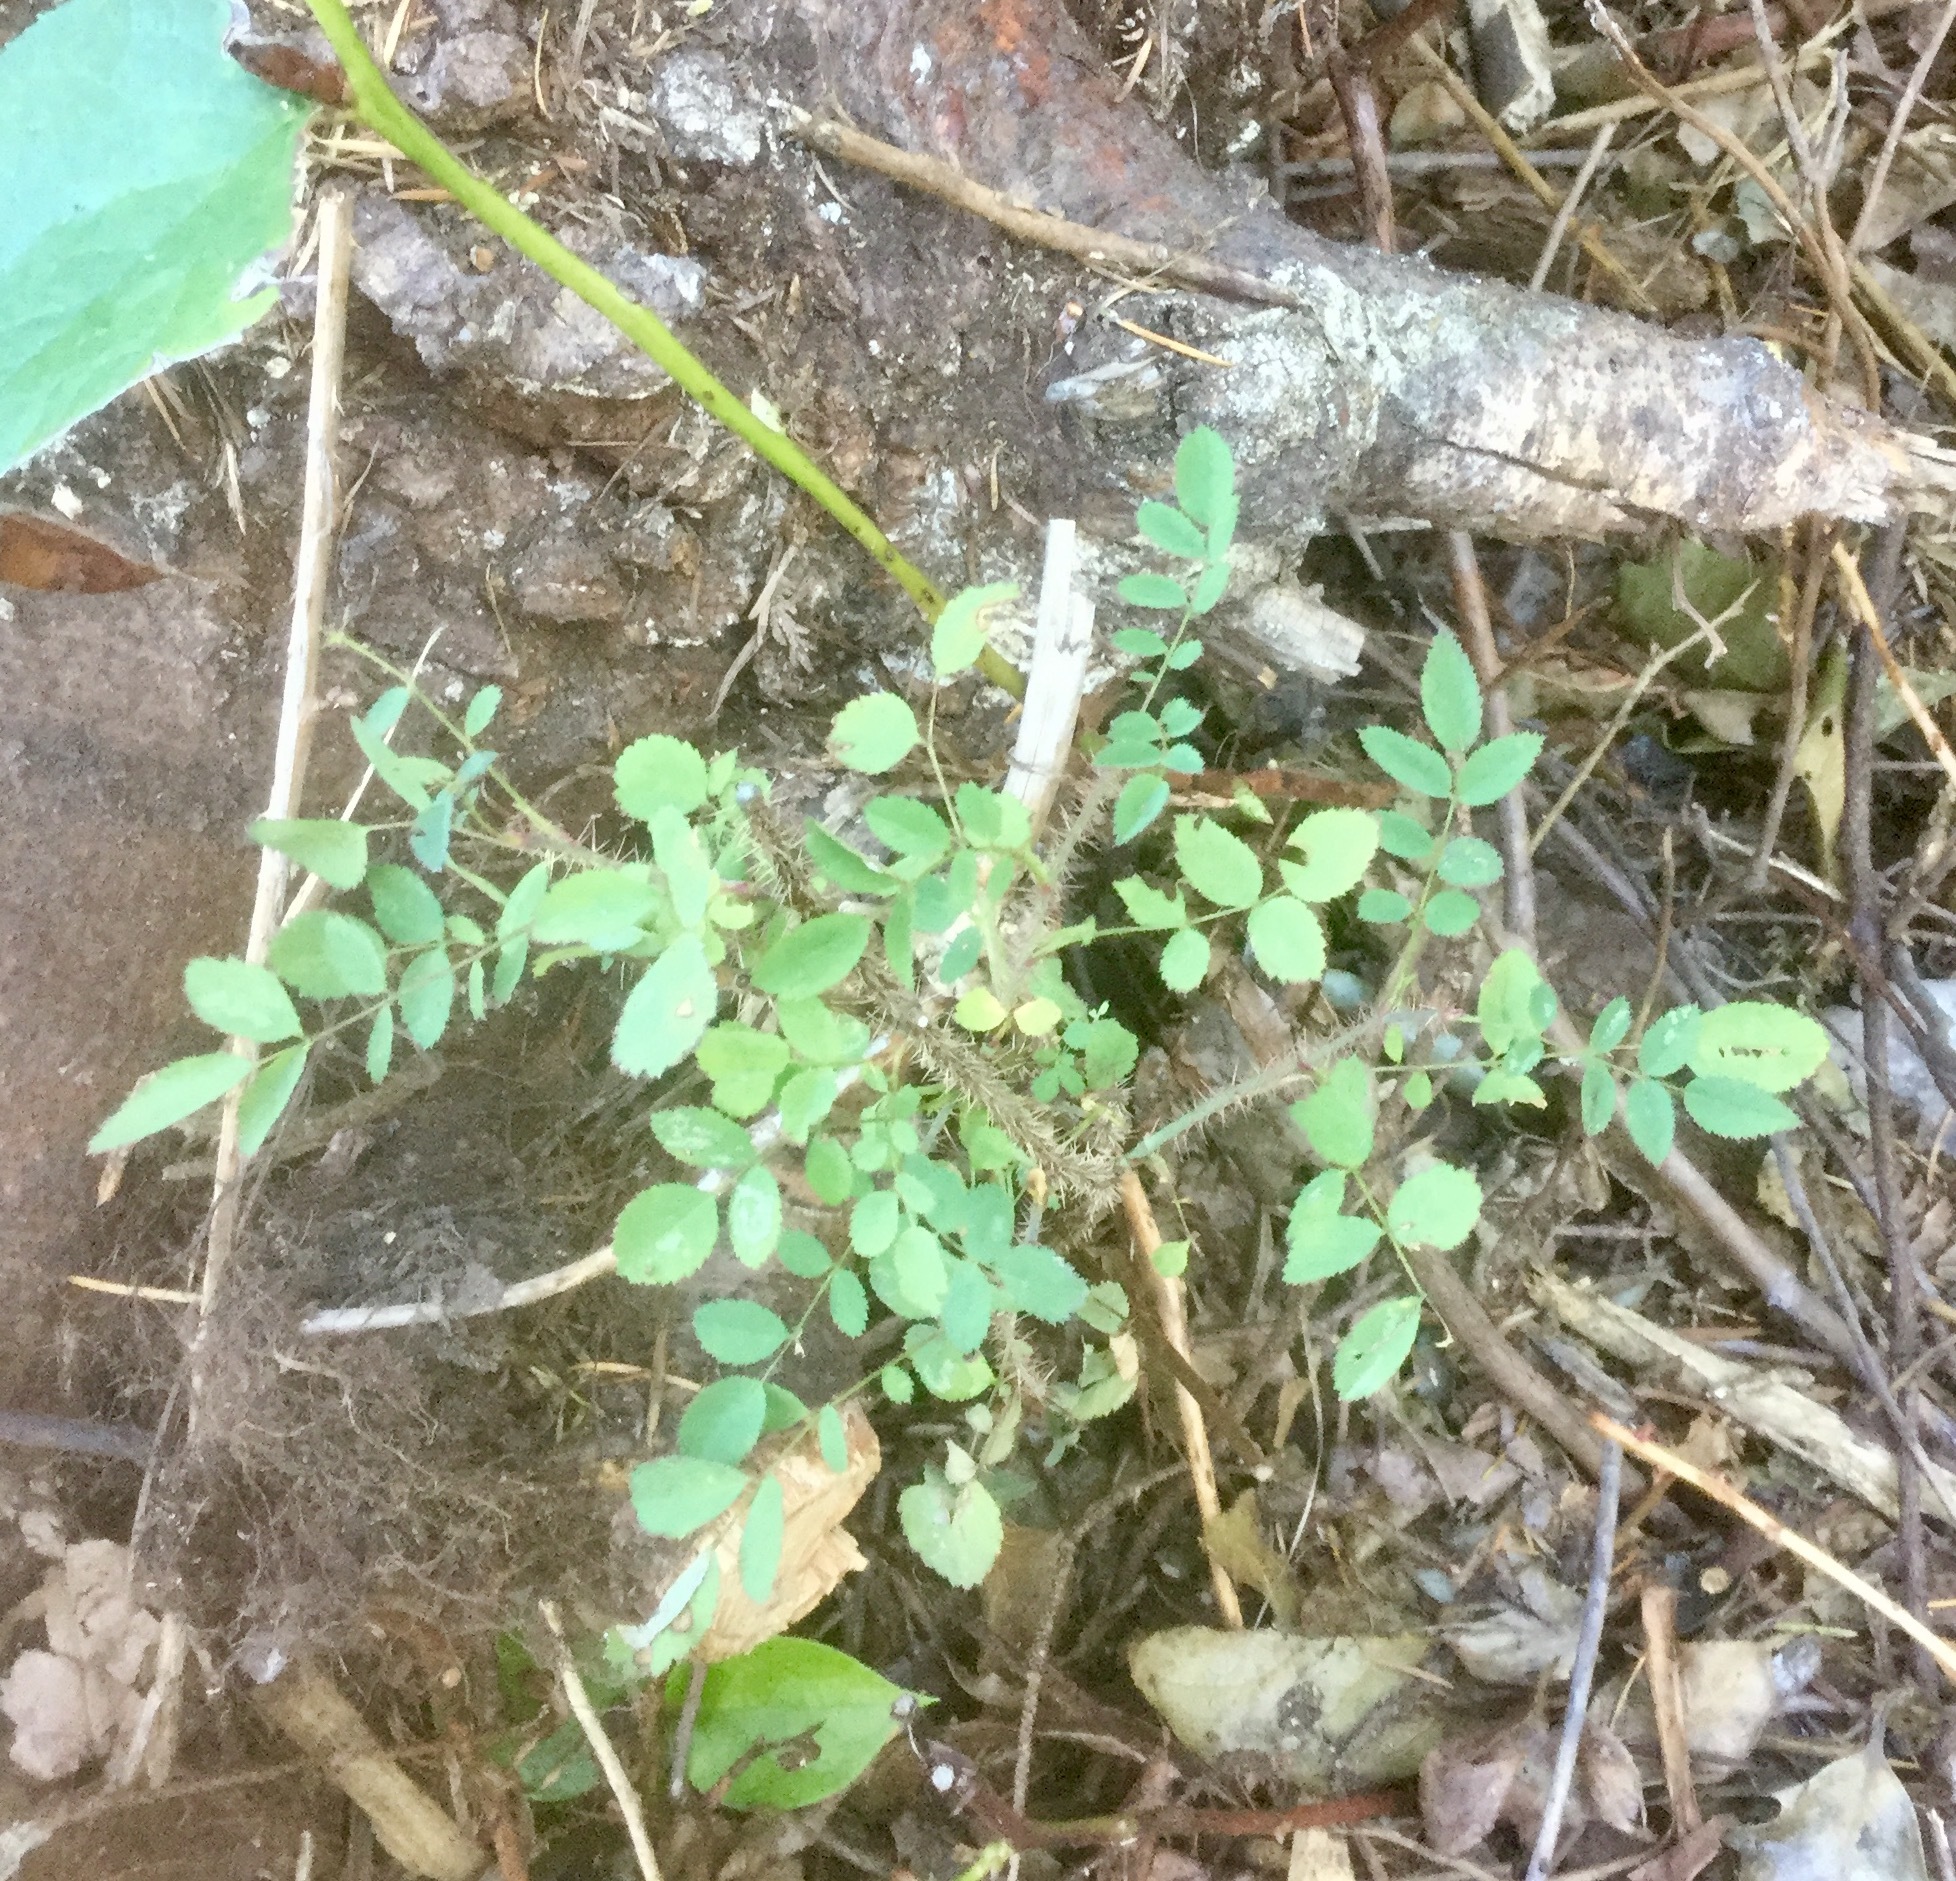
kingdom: Plantae
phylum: Tracheophyta
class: Magnoliopsida
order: Rosales
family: Rosaceae
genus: Rosa
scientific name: Rosa gymnocarpa
